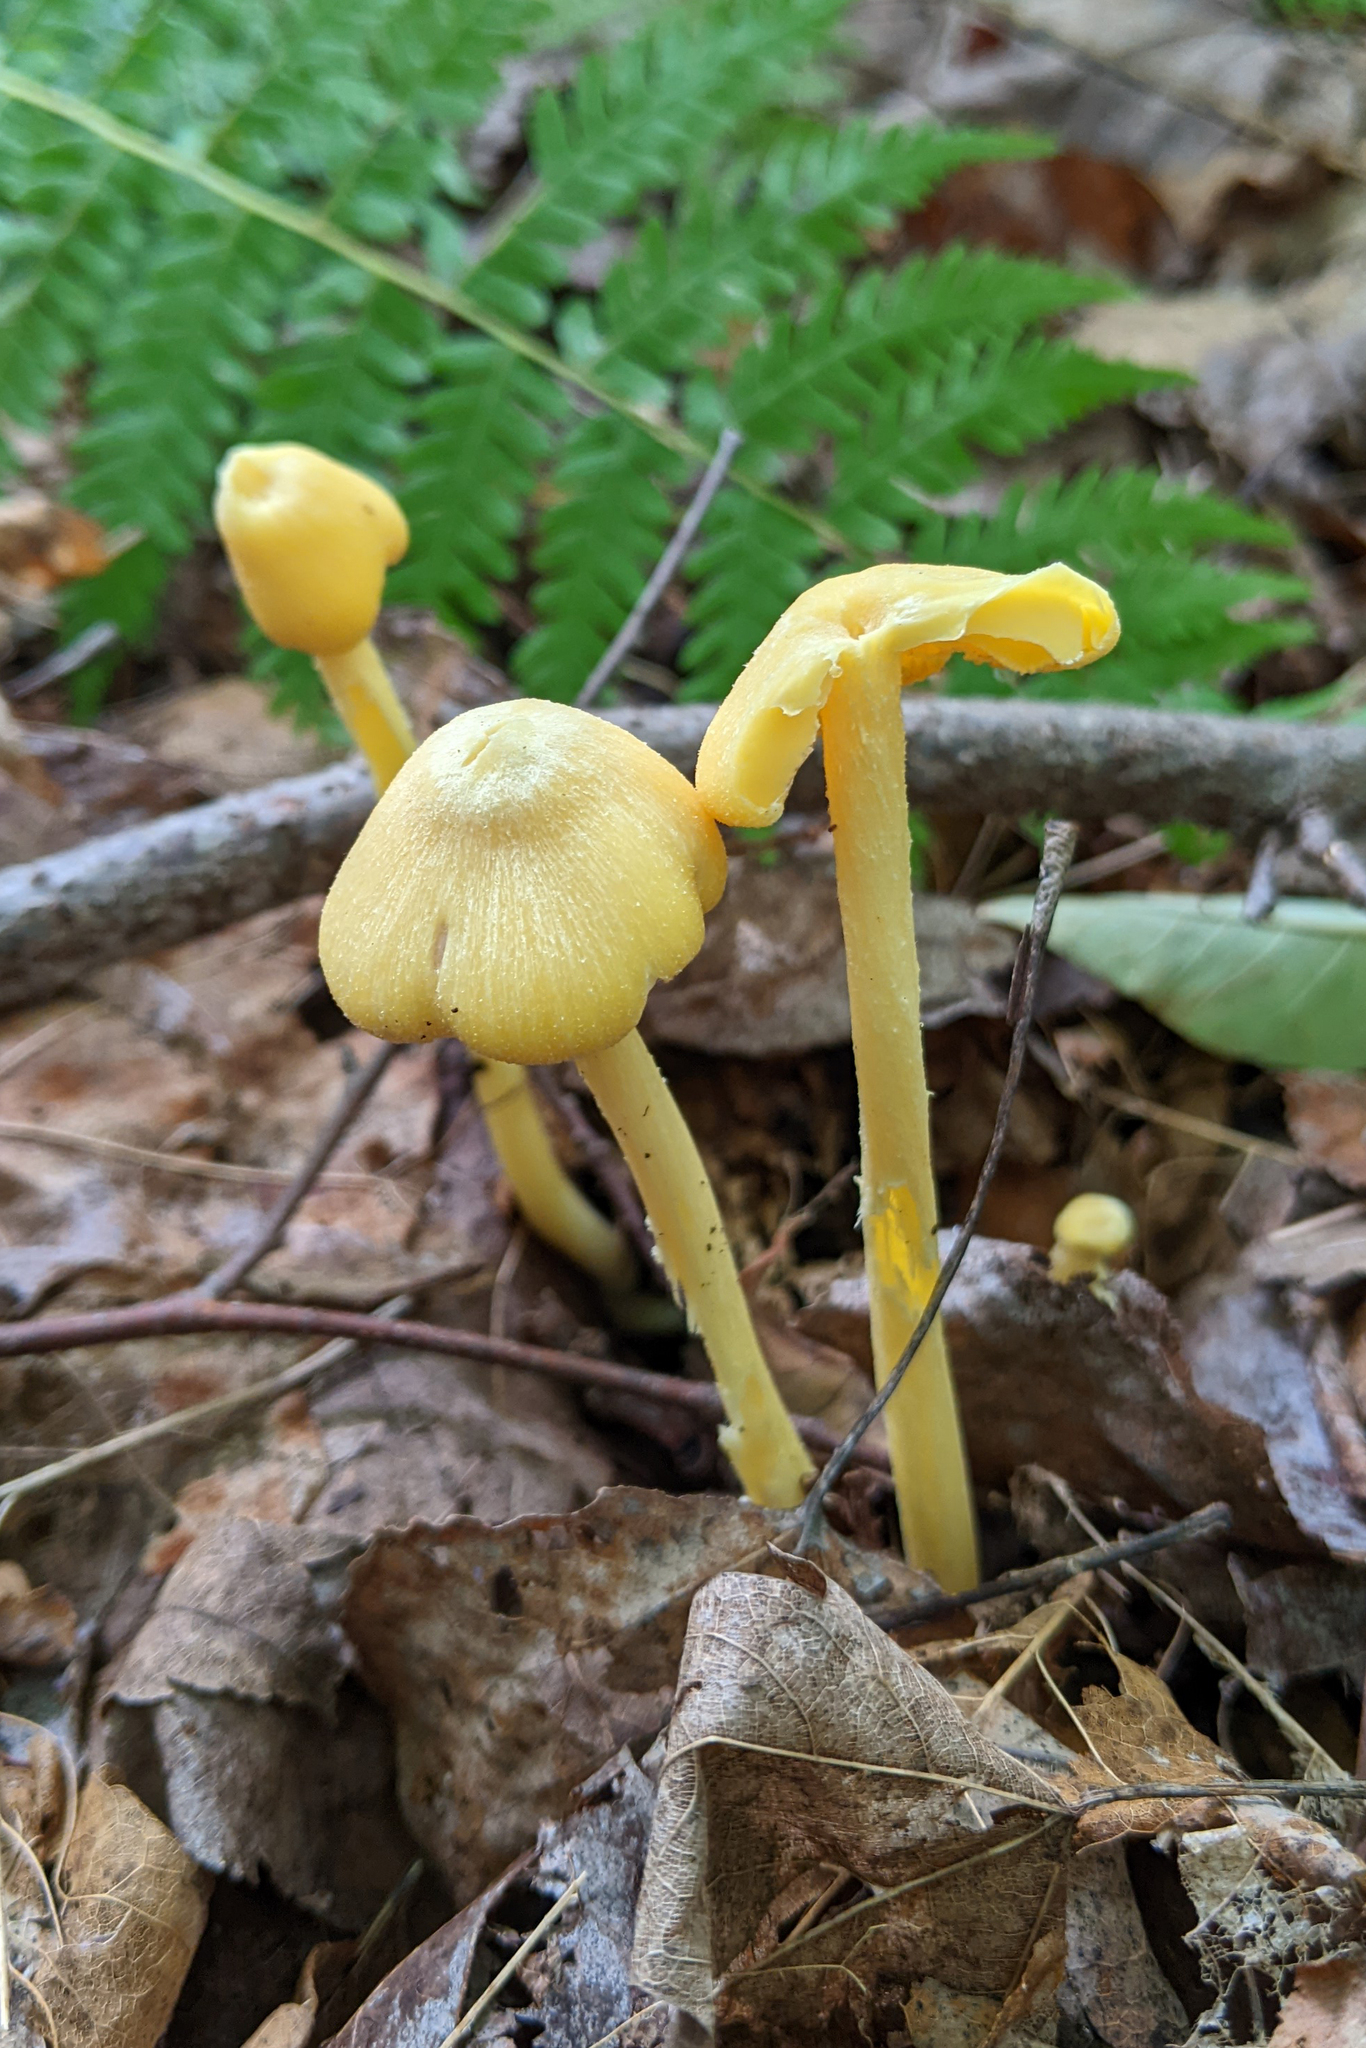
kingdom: Fungi
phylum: Basidiomycota
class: Agaricomycetes
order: Agaricales
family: Entolomataceae
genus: Entoloma
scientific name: Entoloma murrayi
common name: Yellow unicorn entoloma
